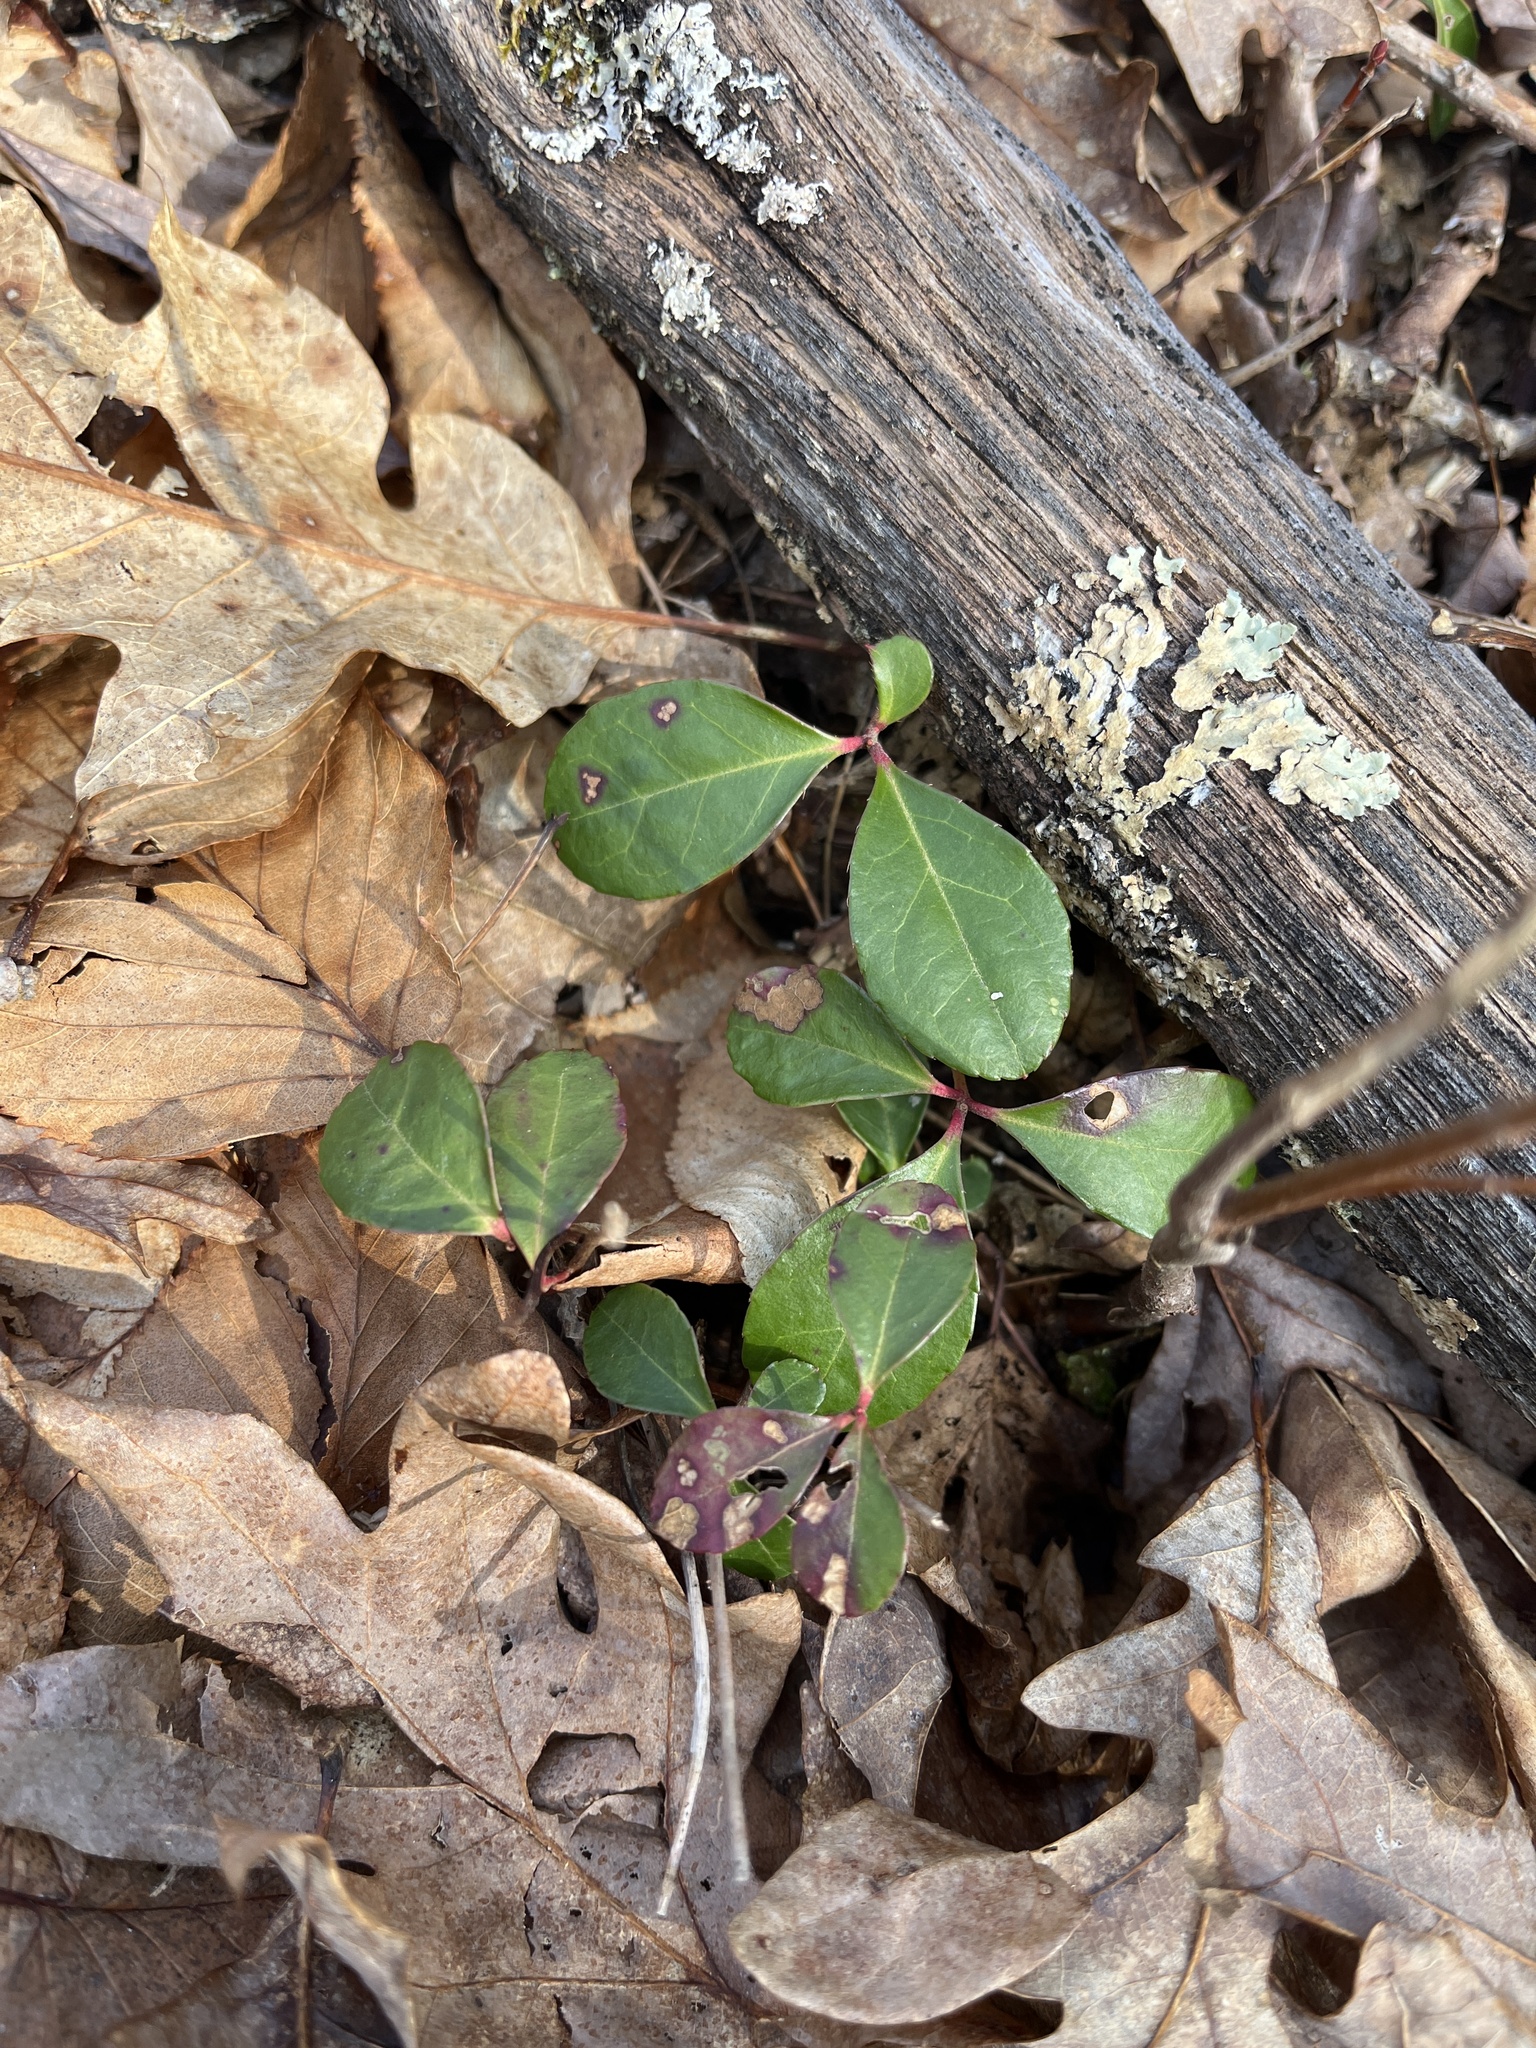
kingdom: Plantae
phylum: Tracheophyta
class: Magnoliopsida
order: Ericales
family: Ericaceae
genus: Gaultheria
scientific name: Gaultheria procumbens
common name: Checkerberry
